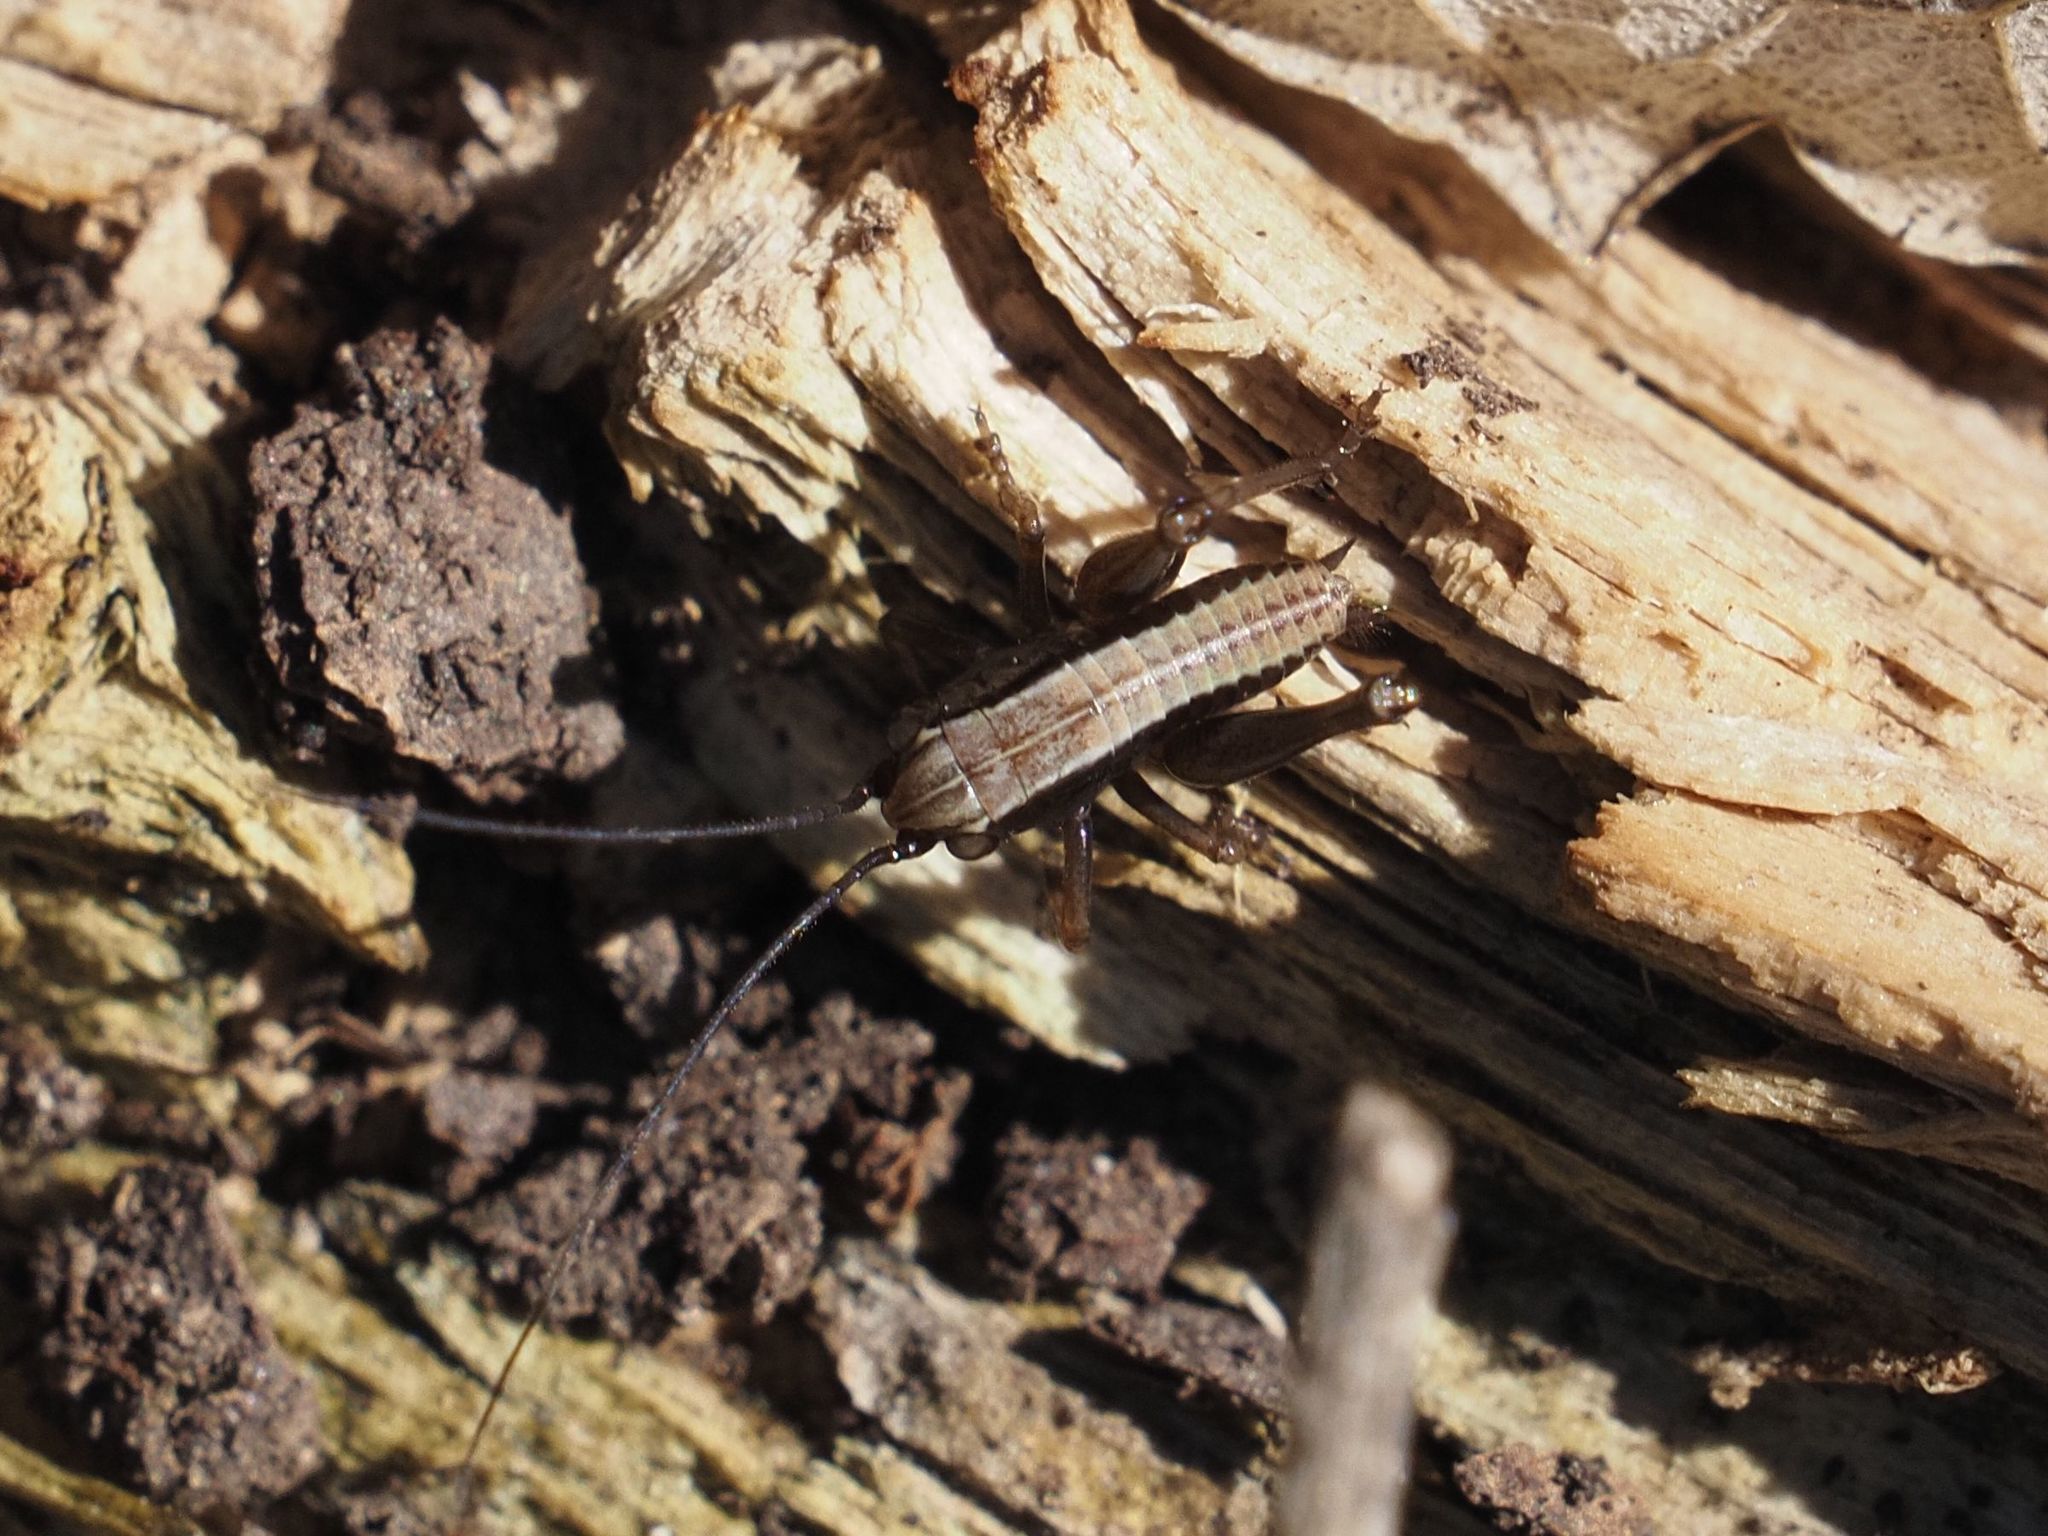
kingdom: Animalia
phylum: Arthropoda
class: Insecta
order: Orthoptera
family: Tettigoniidae
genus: Pholidoptera
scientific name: Pholidoptera griseoaptera
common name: Dark bush-cricket
